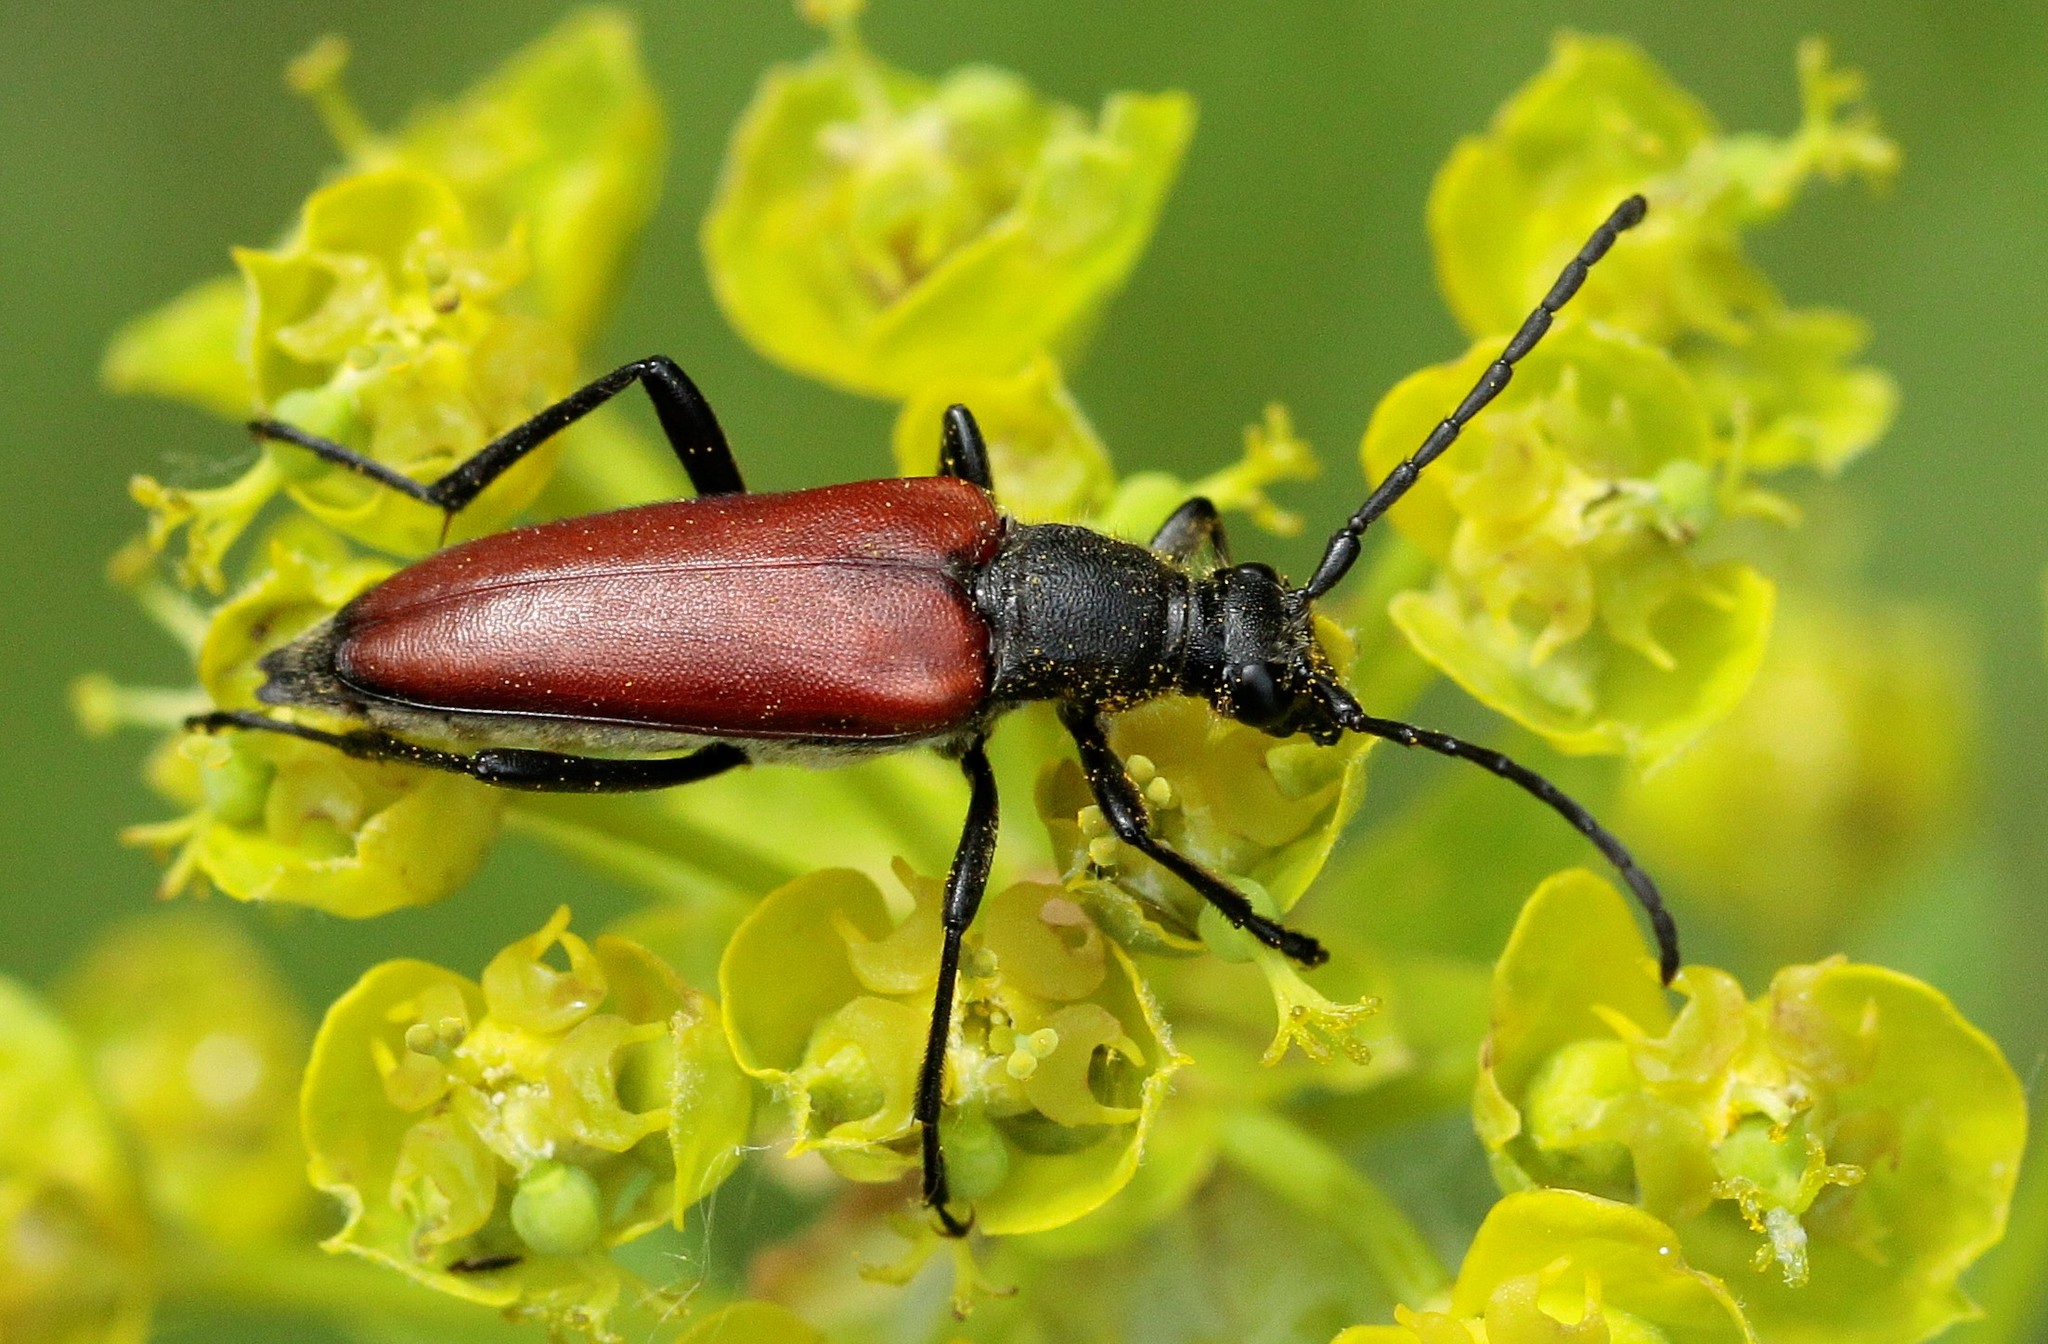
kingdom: Animalia
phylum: Arthropoda
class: Insecta
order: Coleoptera
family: Cerambycidae
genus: Lepturalia
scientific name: Lepturalia nigripes
